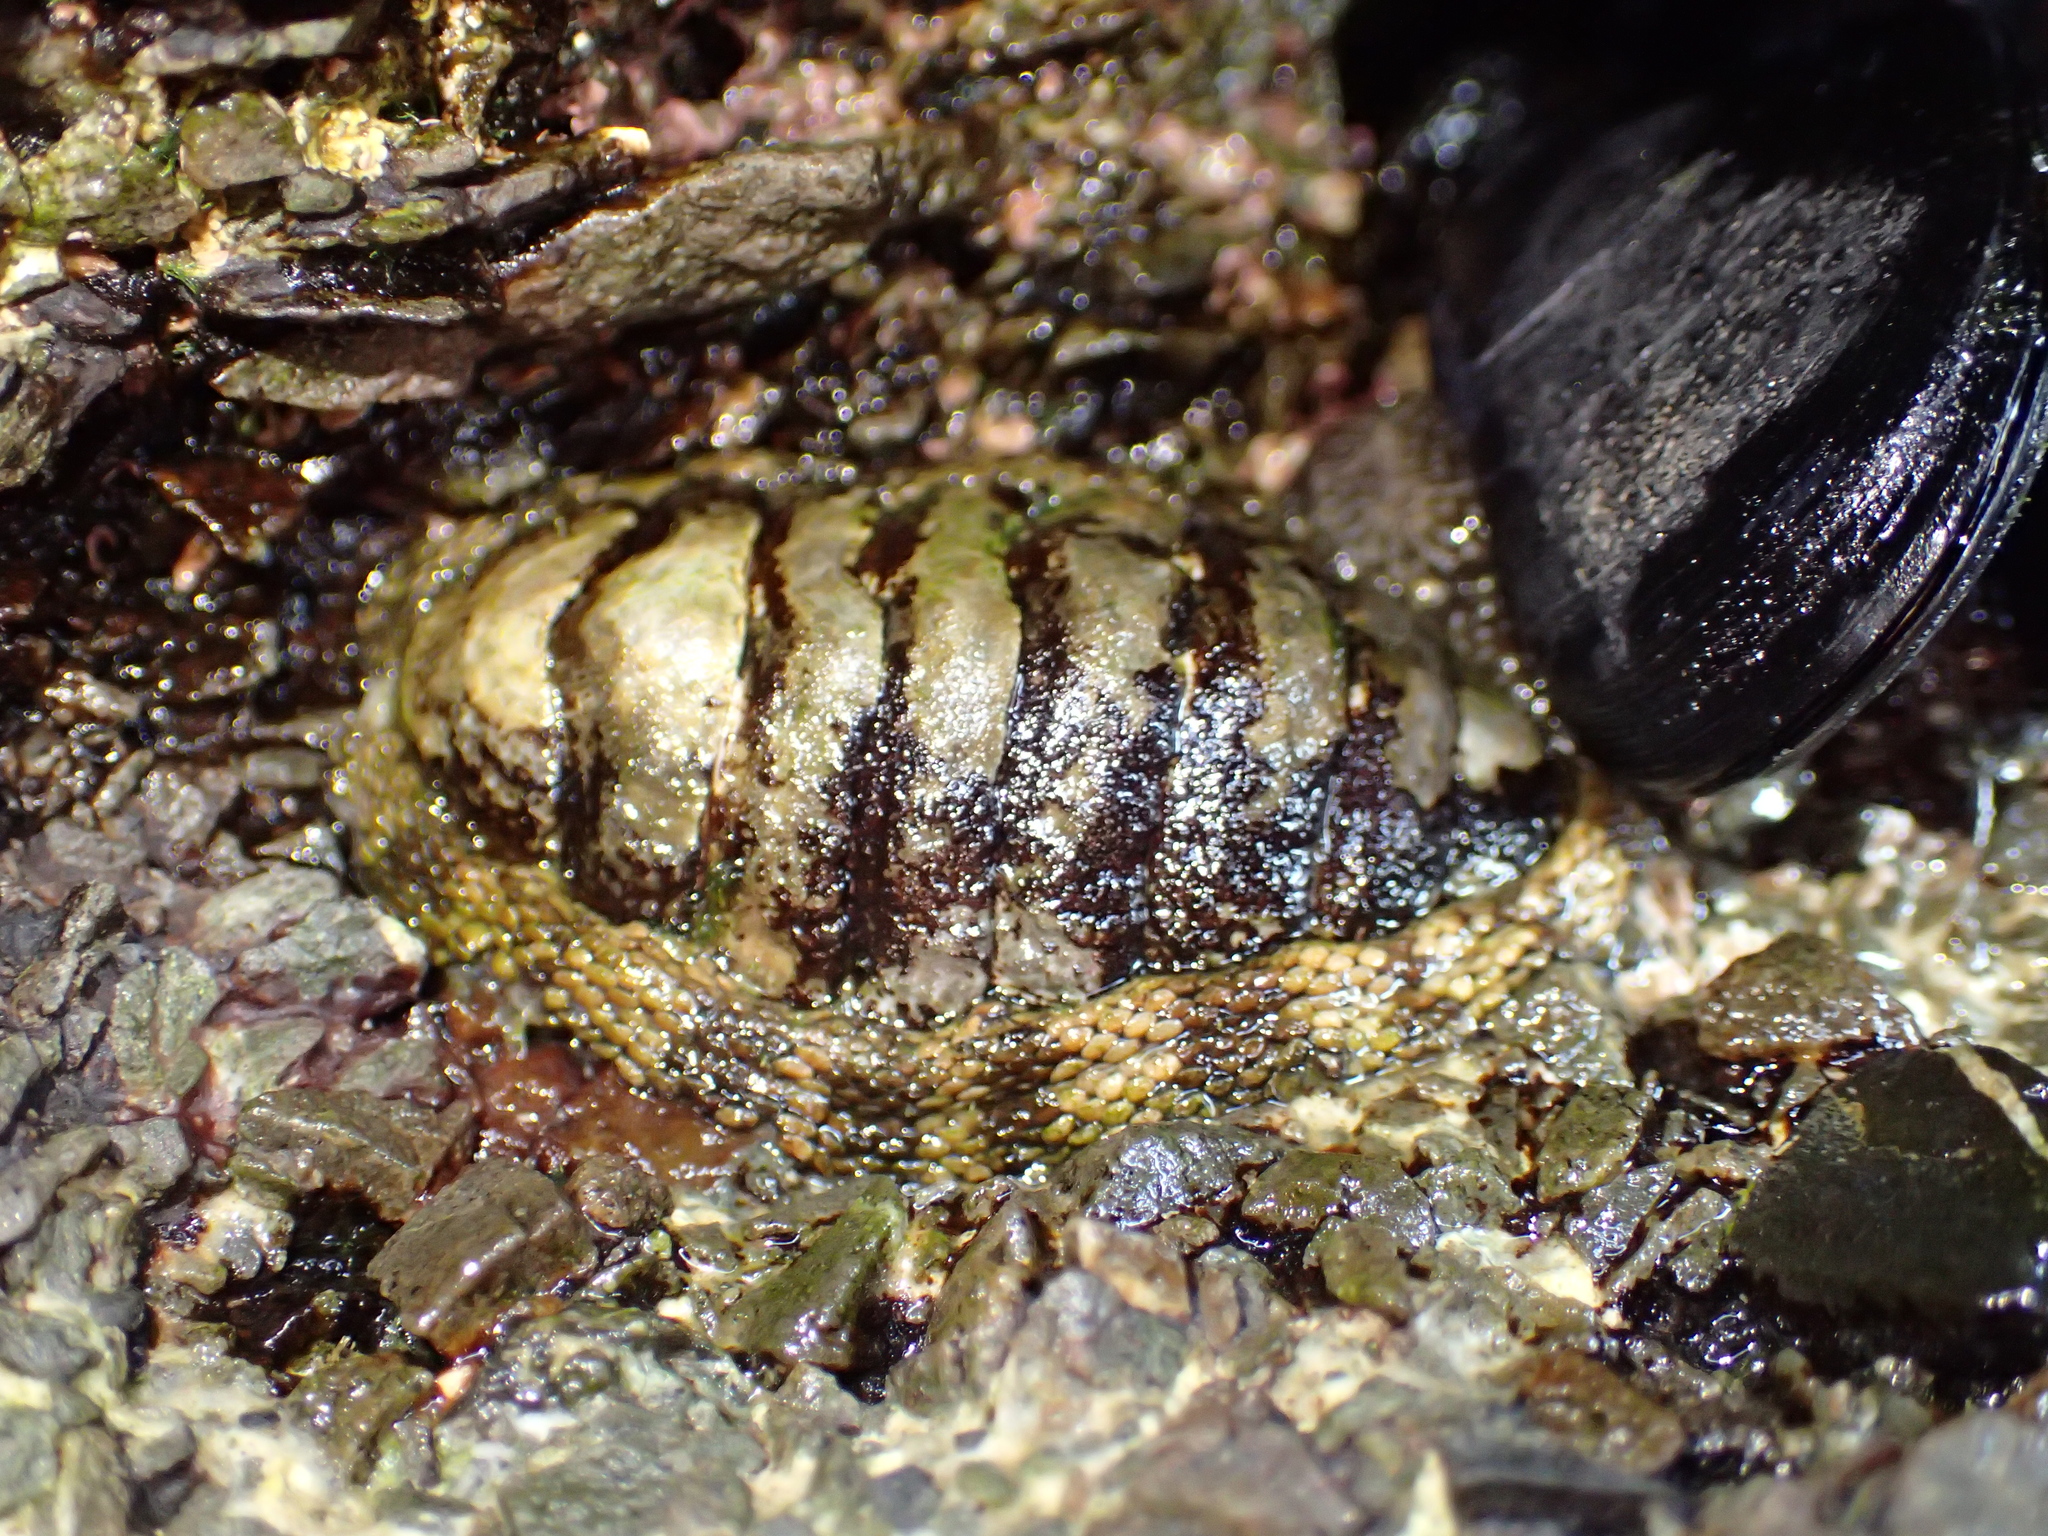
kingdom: Animalia
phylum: Mollusca
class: Polyplacophora
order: Chitonida
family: Chitonidae
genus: Sypharochiton
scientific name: Sypharochiton pelliserpentis
